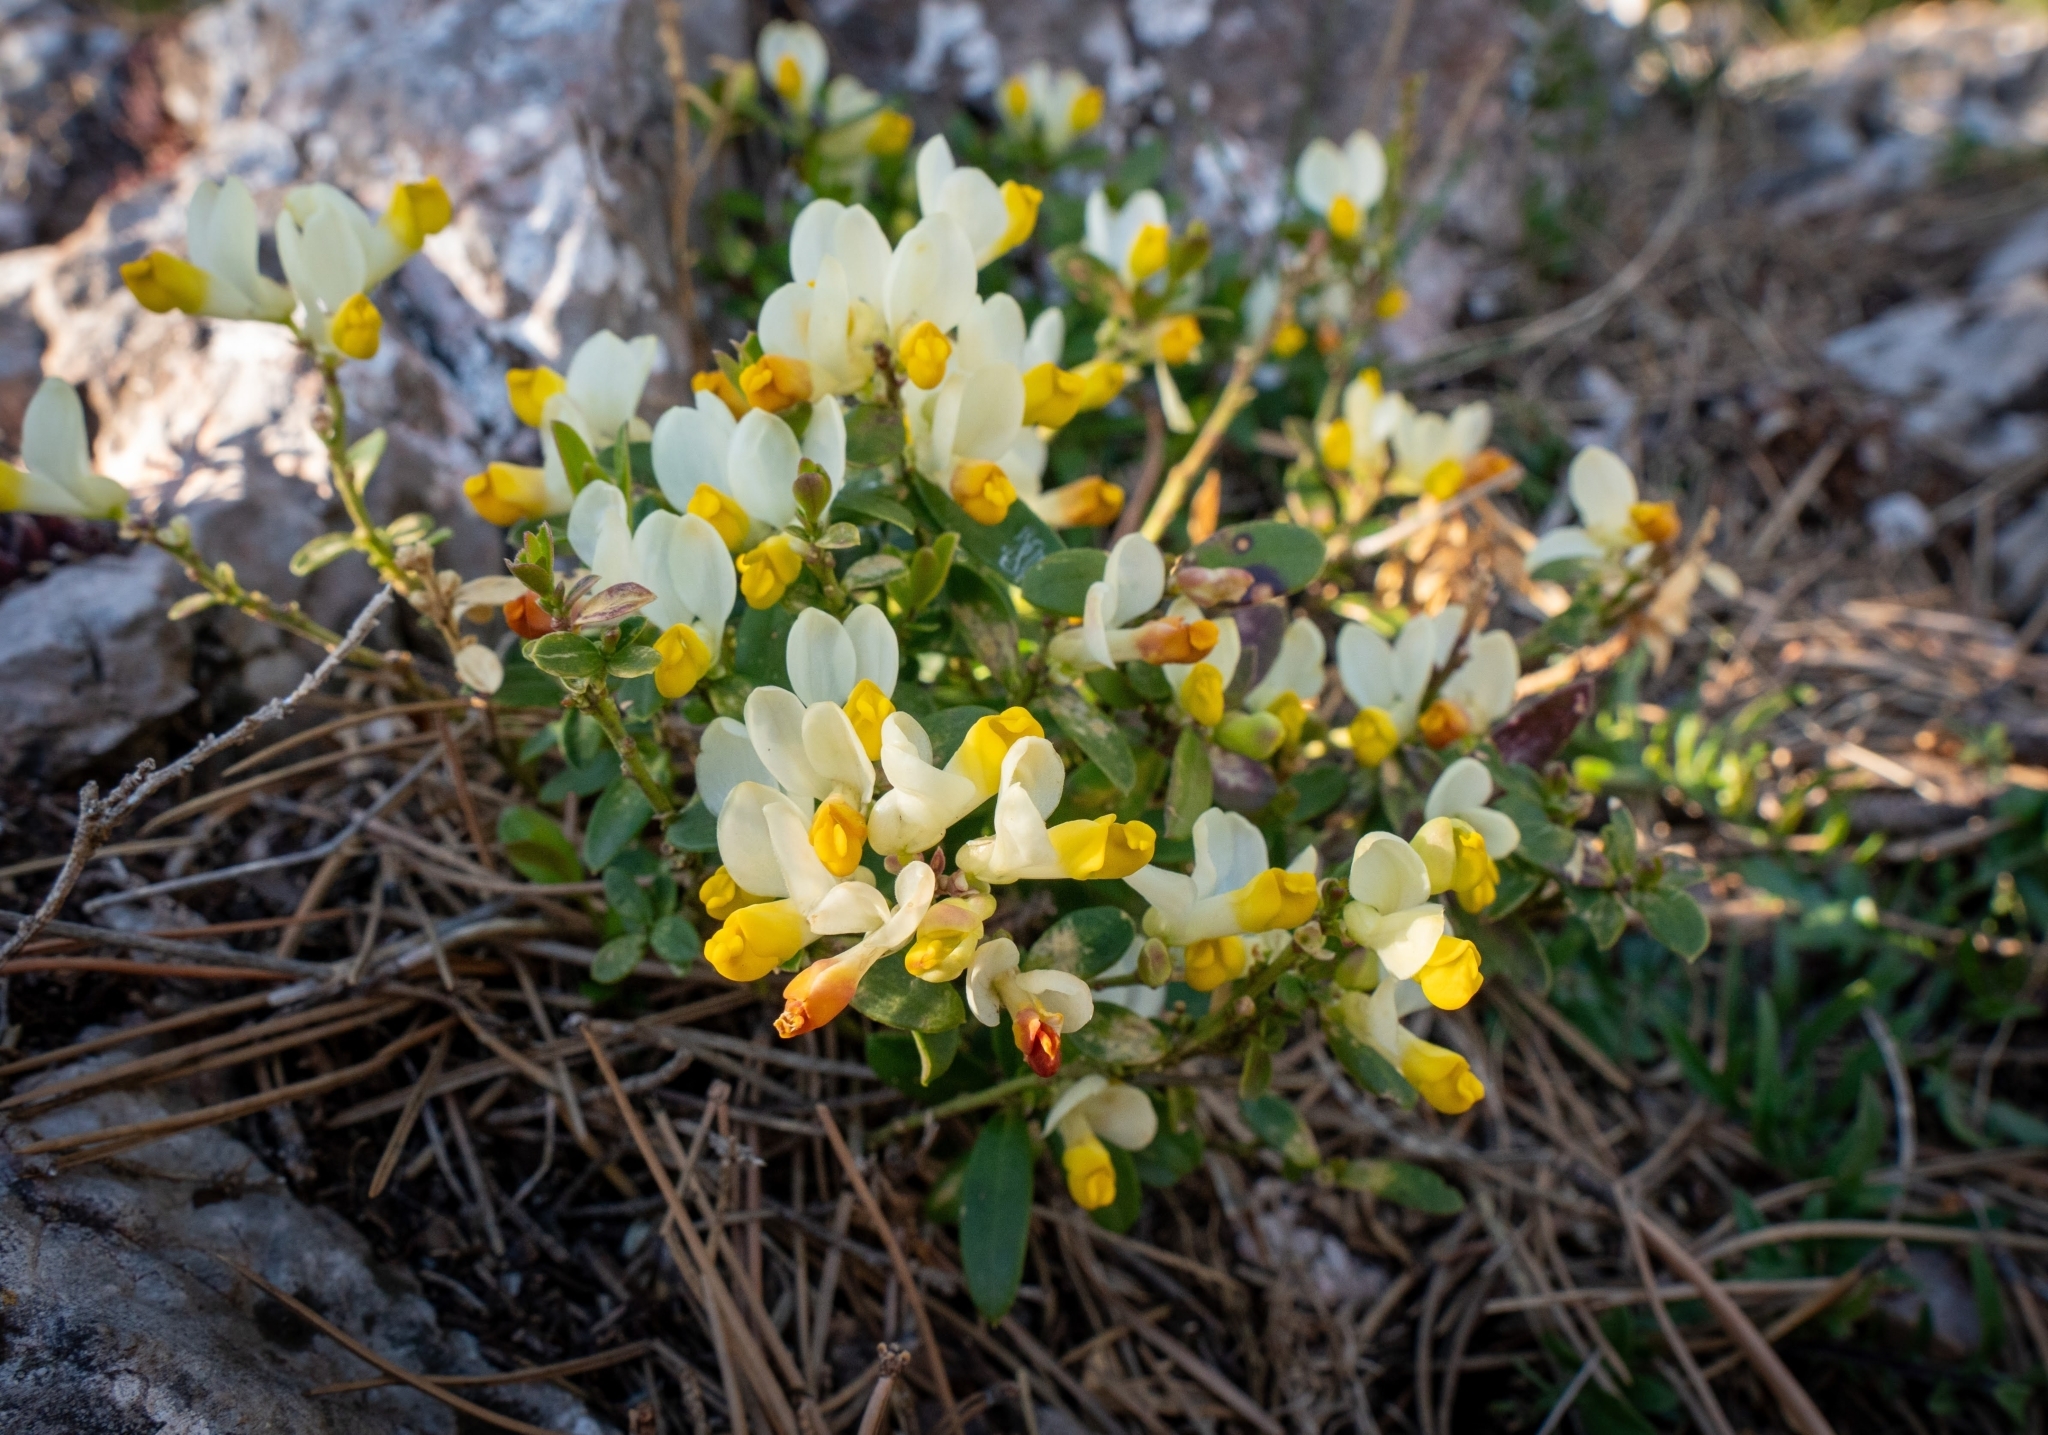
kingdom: Plantae
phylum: Tracheophyta
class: Magnoliopsida
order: Fabales
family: Polygalaceae
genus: Polygaloides
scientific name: Polygaloides chamaebuxus
